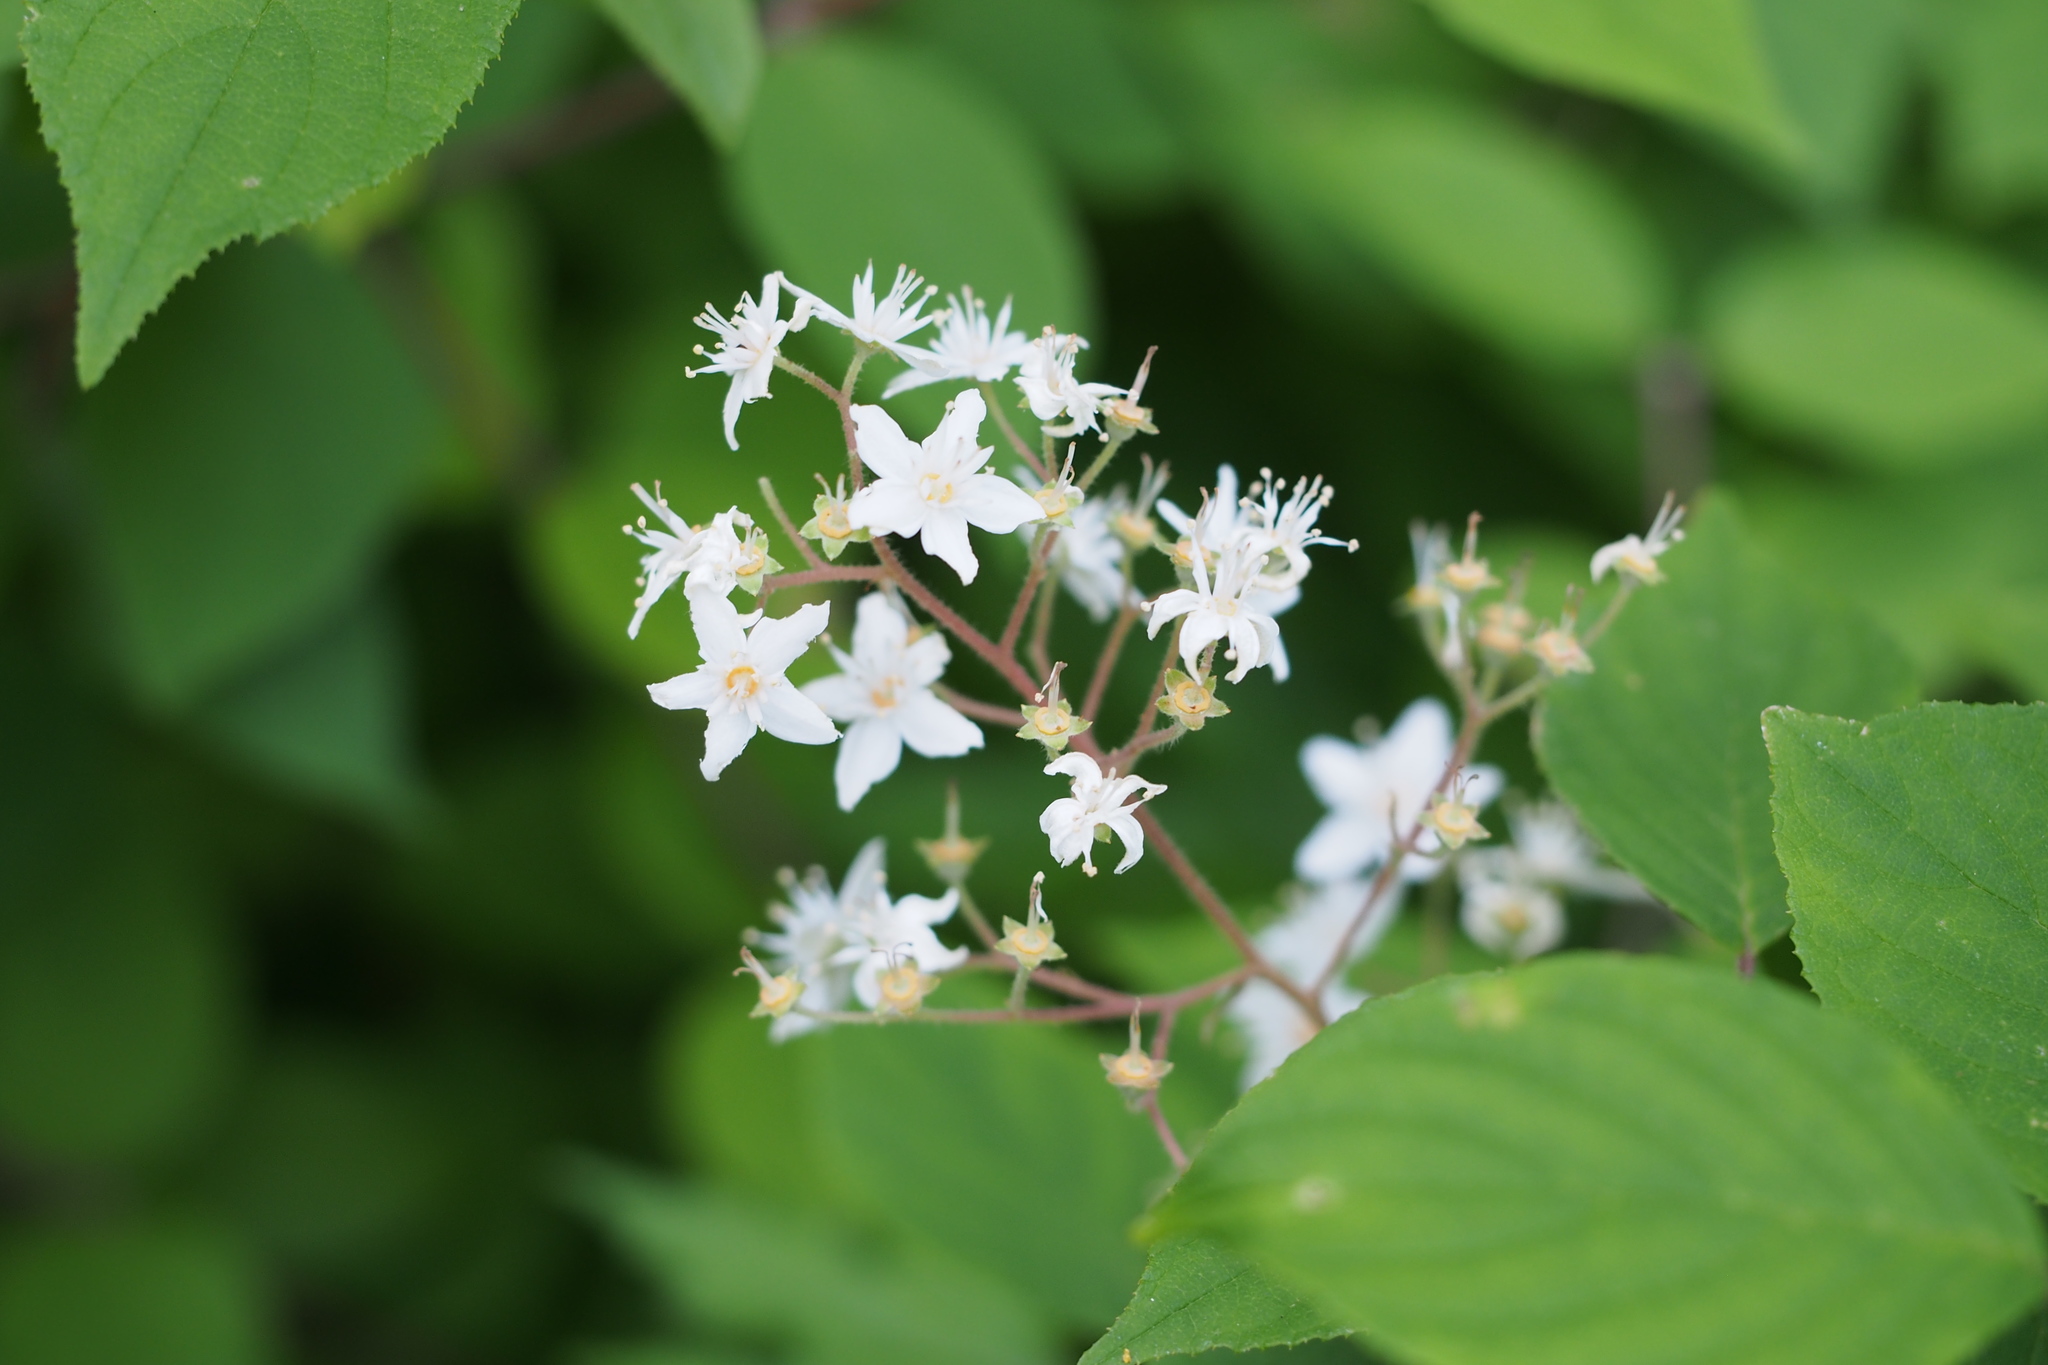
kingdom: Plantae
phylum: Tracheophyta
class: Magnoliopsida
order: Cornales
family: Hydrangeaceae
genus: Deutzia
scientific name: Deutzia scabra
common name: Deutzia
